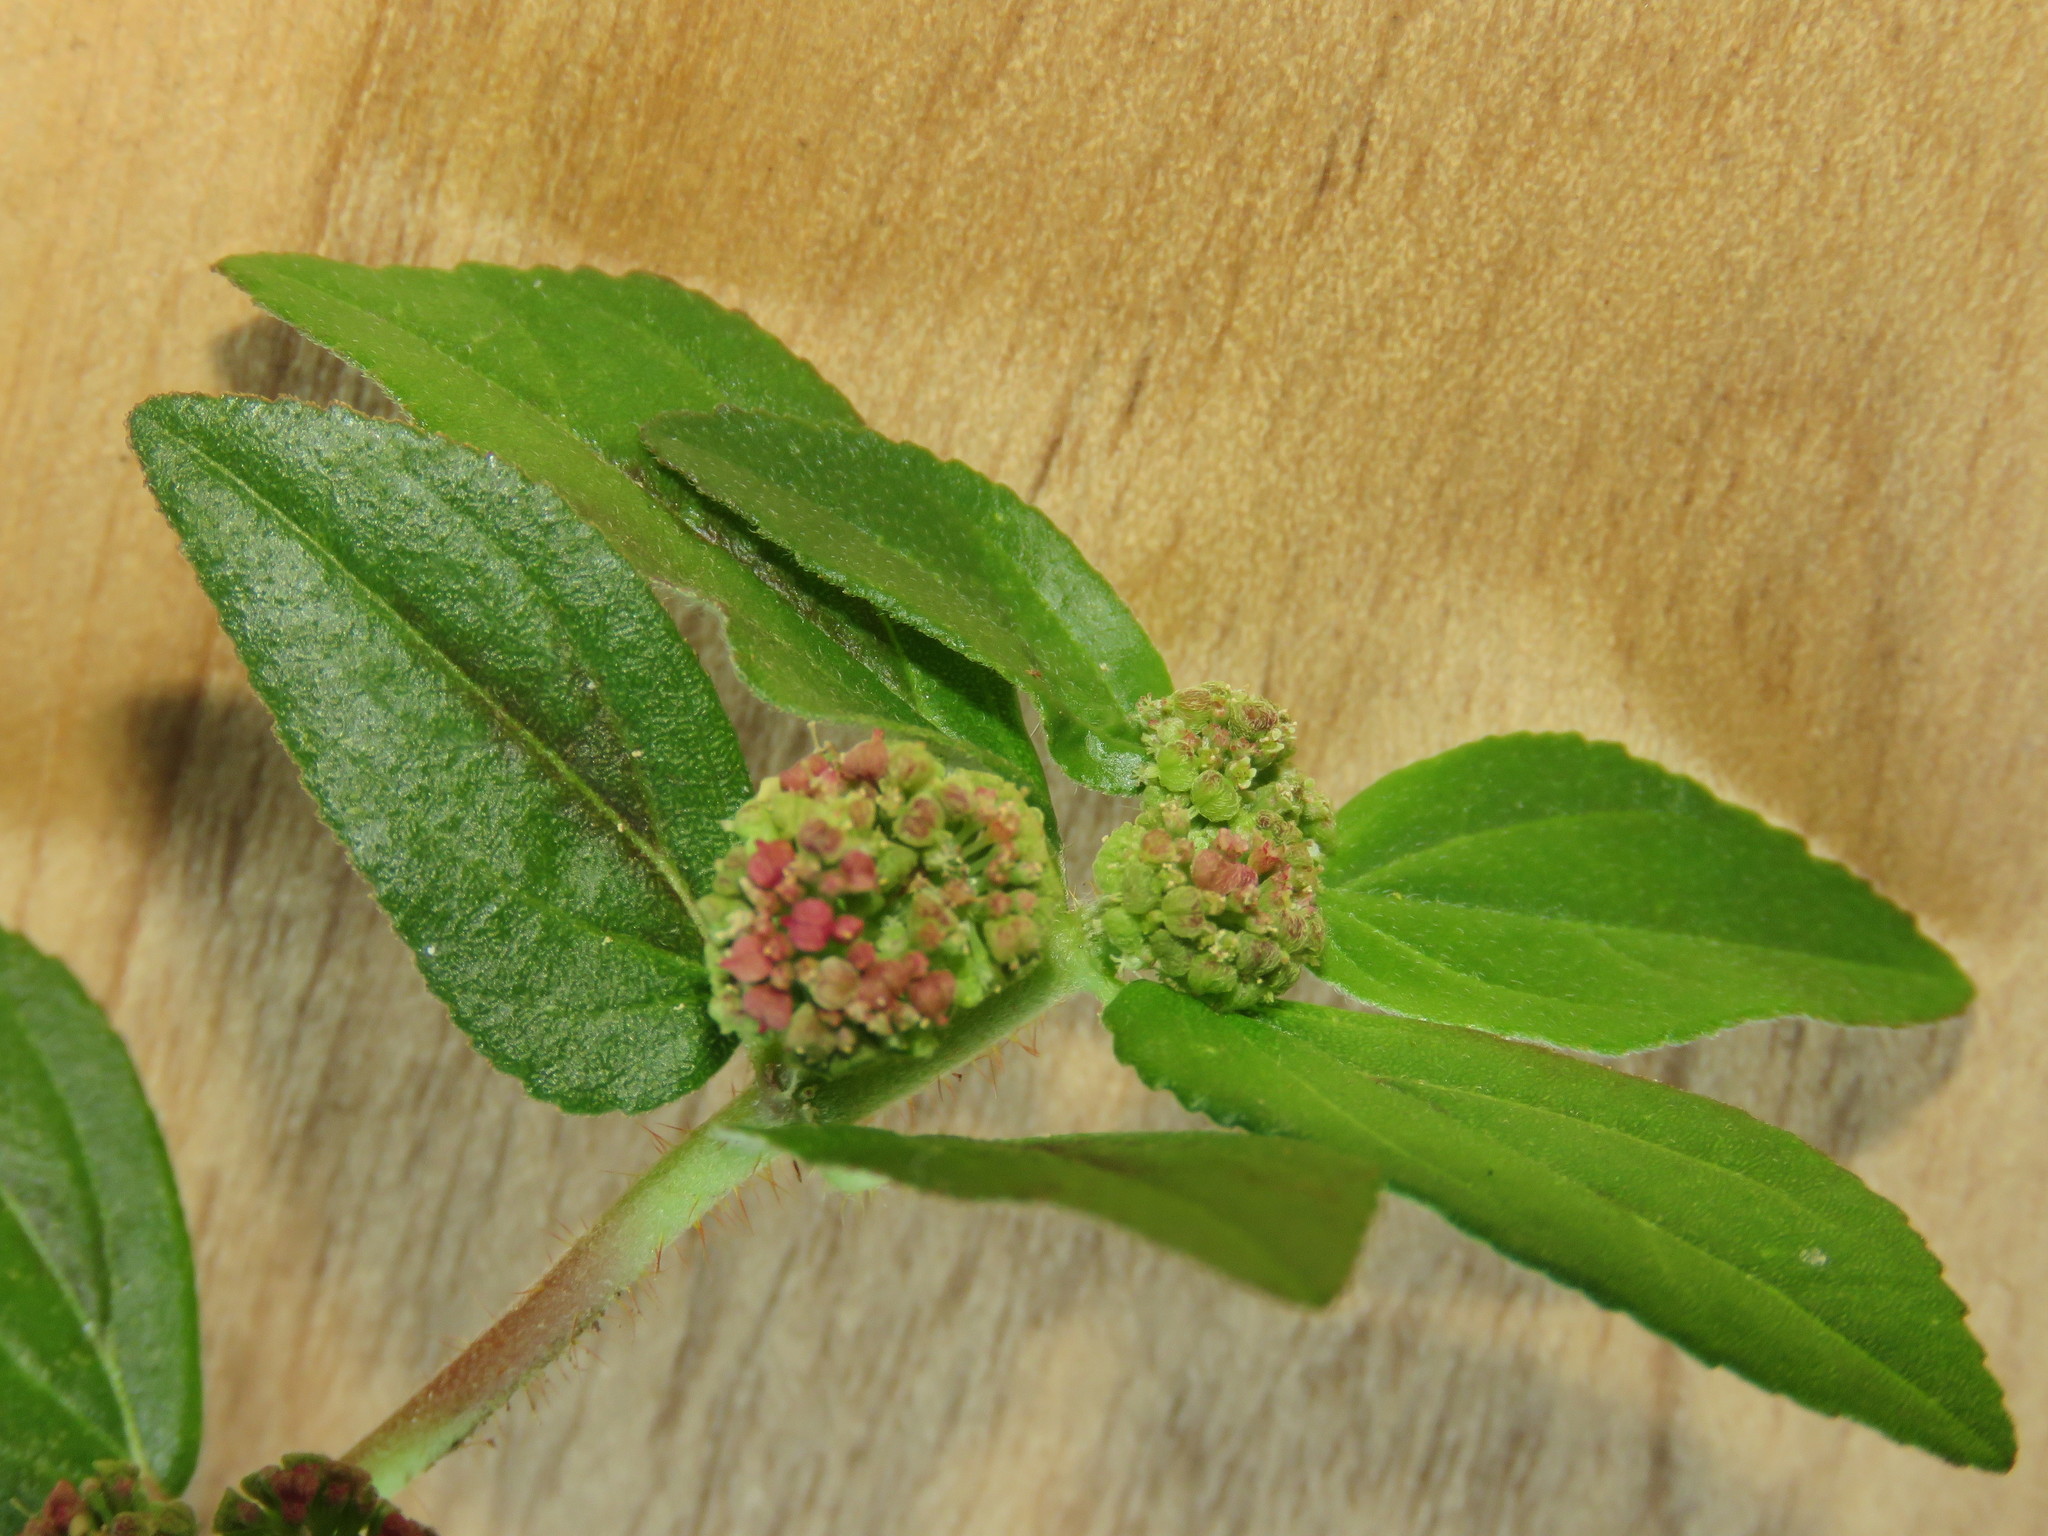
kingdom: Plantae
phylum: Tracheophyta
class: Magnoliopsida
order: Malpighiales
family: Euphorbiaceae
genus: Euphorbia
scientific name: Euphorbia hirta
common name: Pillpod sandmat
